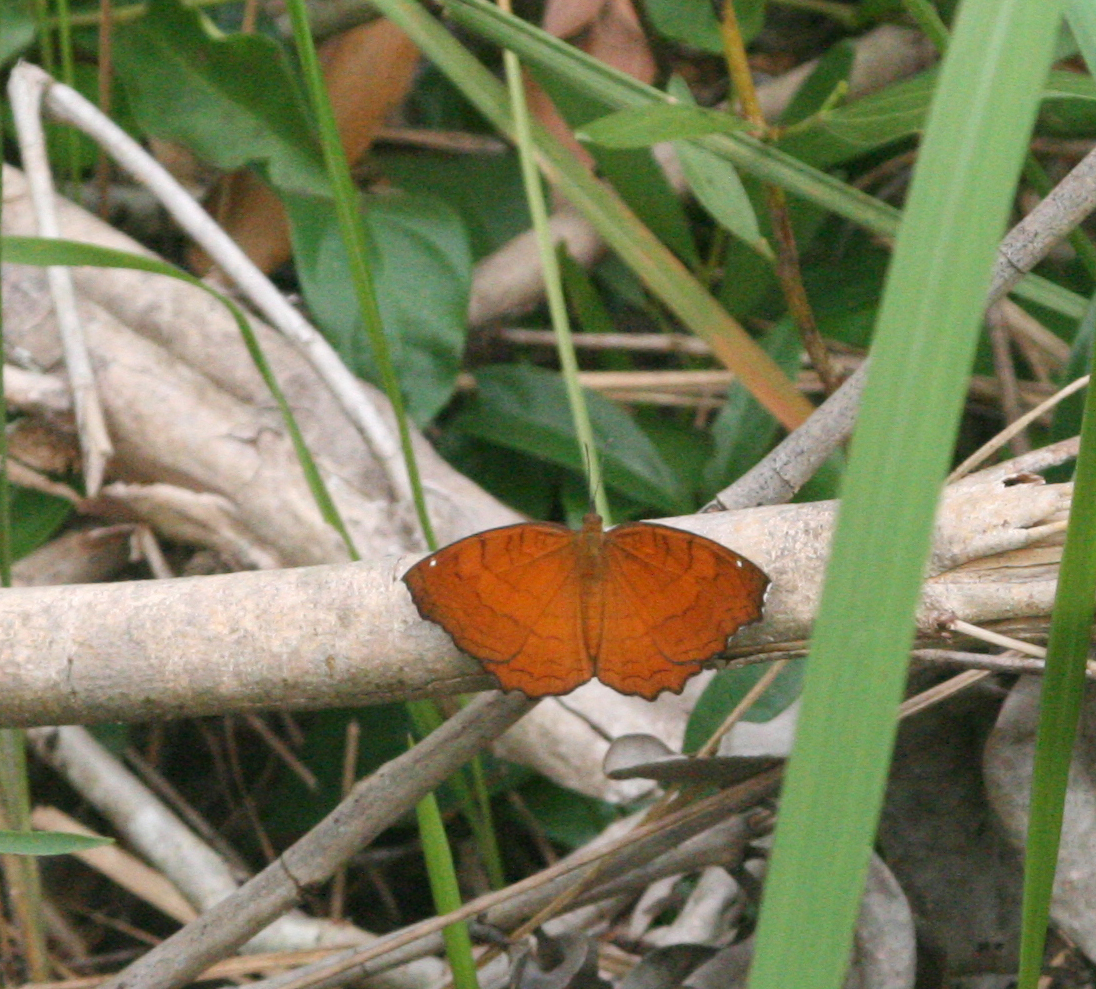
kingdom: Animalia
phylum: Arthropoda
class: Insecta
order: Lepidoptera
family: Nymphalidae
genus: Ariadne
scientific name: Ariadne ariadne
